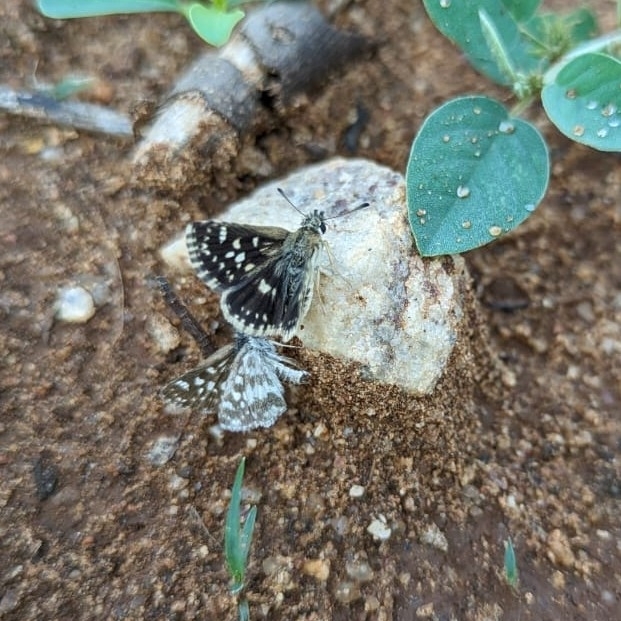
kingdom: Animalia
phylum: Arthropoda
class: Insecta
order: Lepidoptera
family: Hesperiidae
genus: Spialia
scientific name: Spialia galba
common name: Indian skipper
